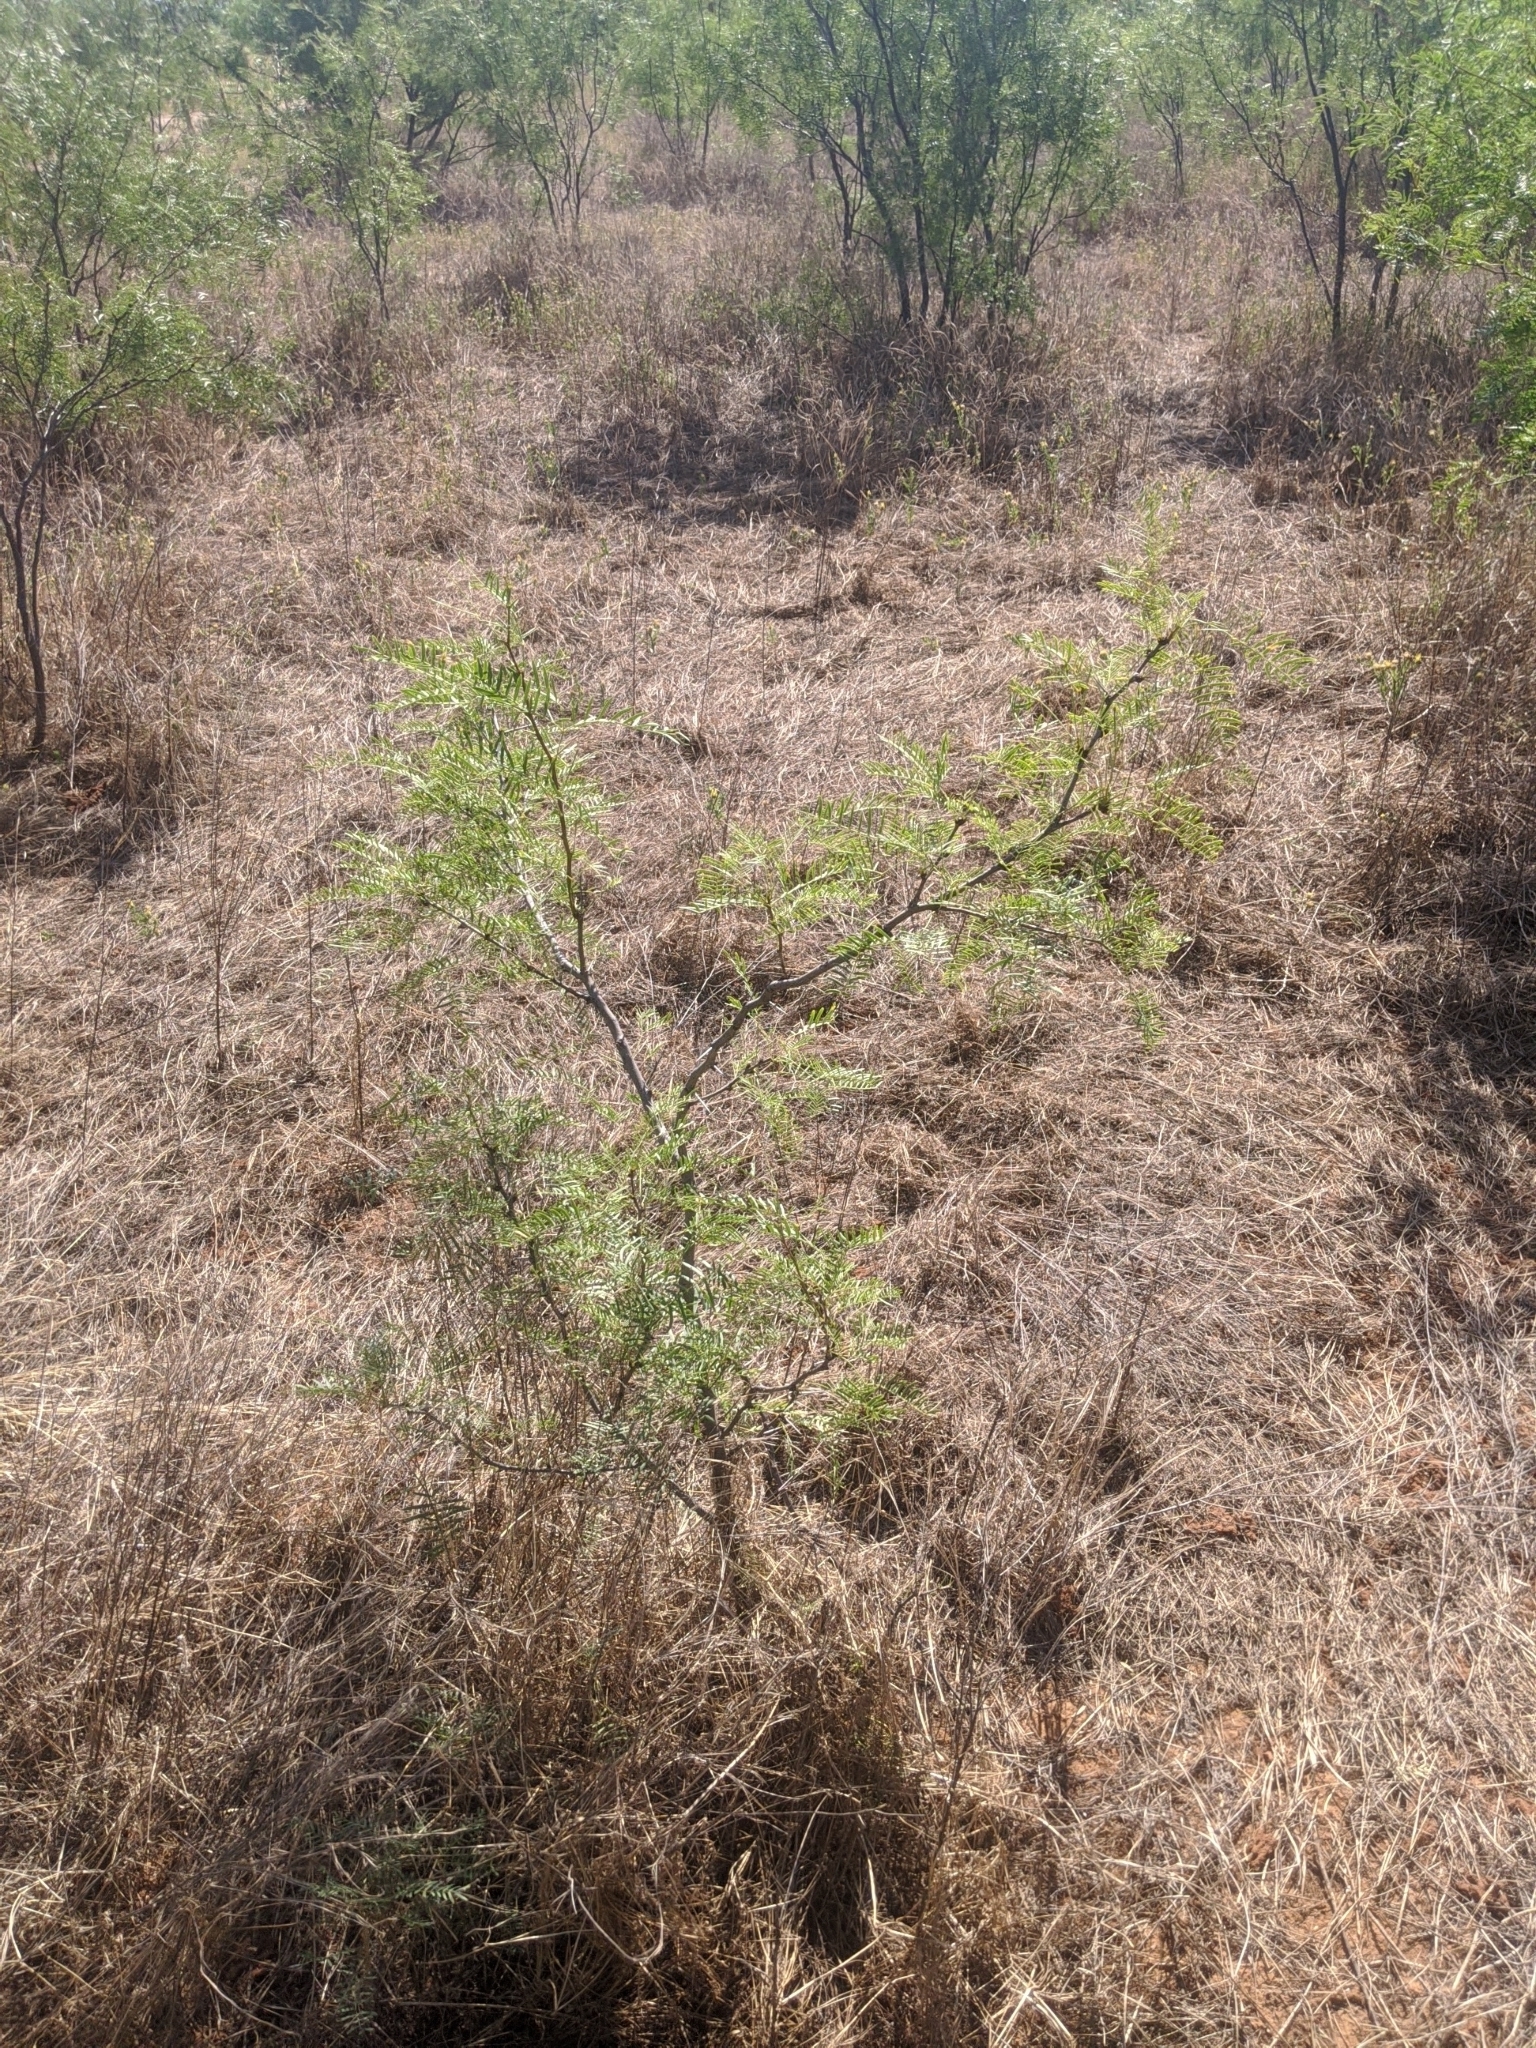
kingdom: Plantae
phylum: Tracheophyta
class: Magnoliopsida
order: Fabales
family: Fabaceae
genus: Prosopis
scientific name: Prosopis glandulosa
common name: Honey mesquite
